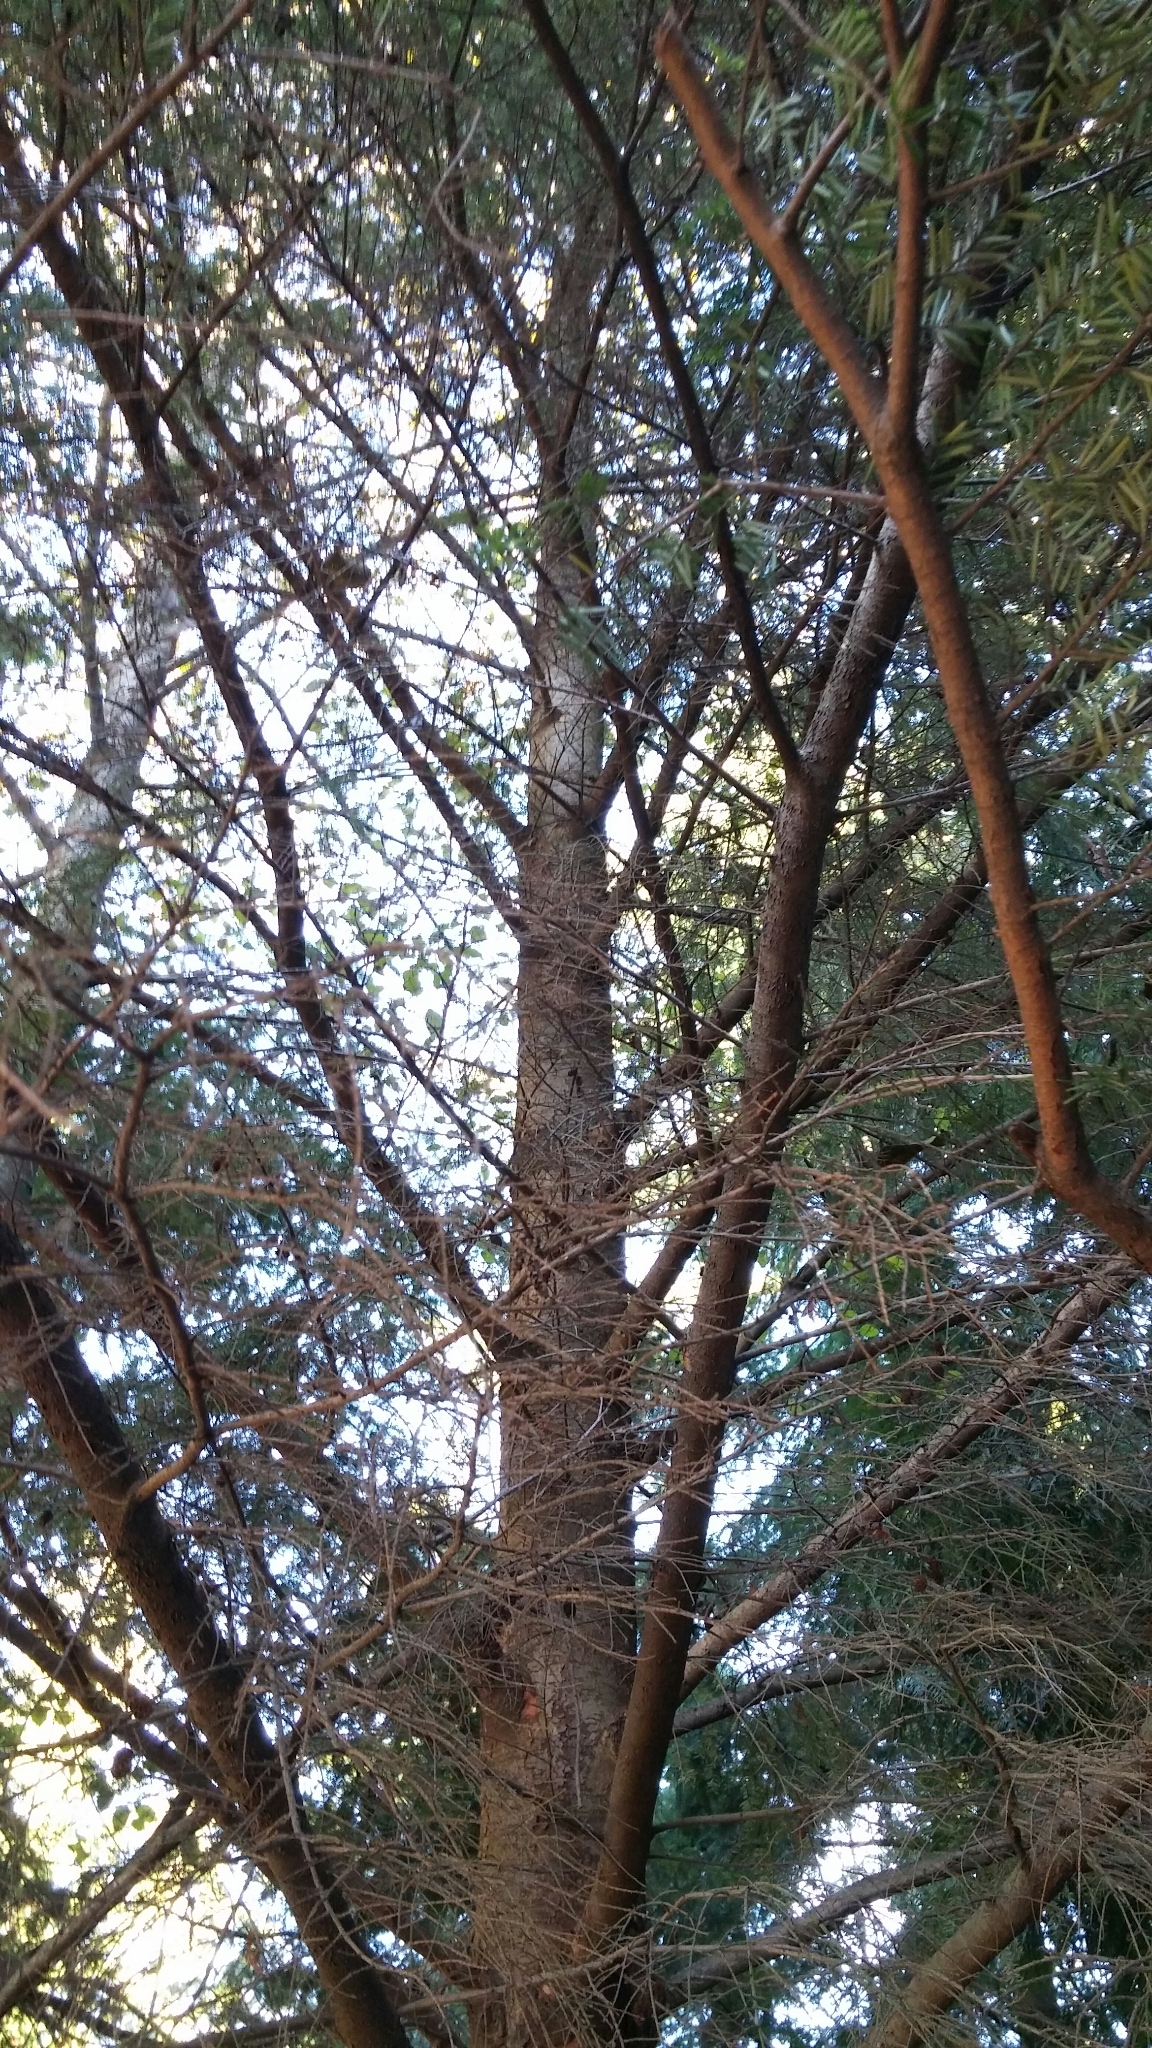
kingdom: Plantae
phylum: Tracheophyta
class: Pinopsida
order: Pinales
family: Pinaceae
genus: Tsuga
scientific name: Tsuga heterophylla
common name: Western hemlock
